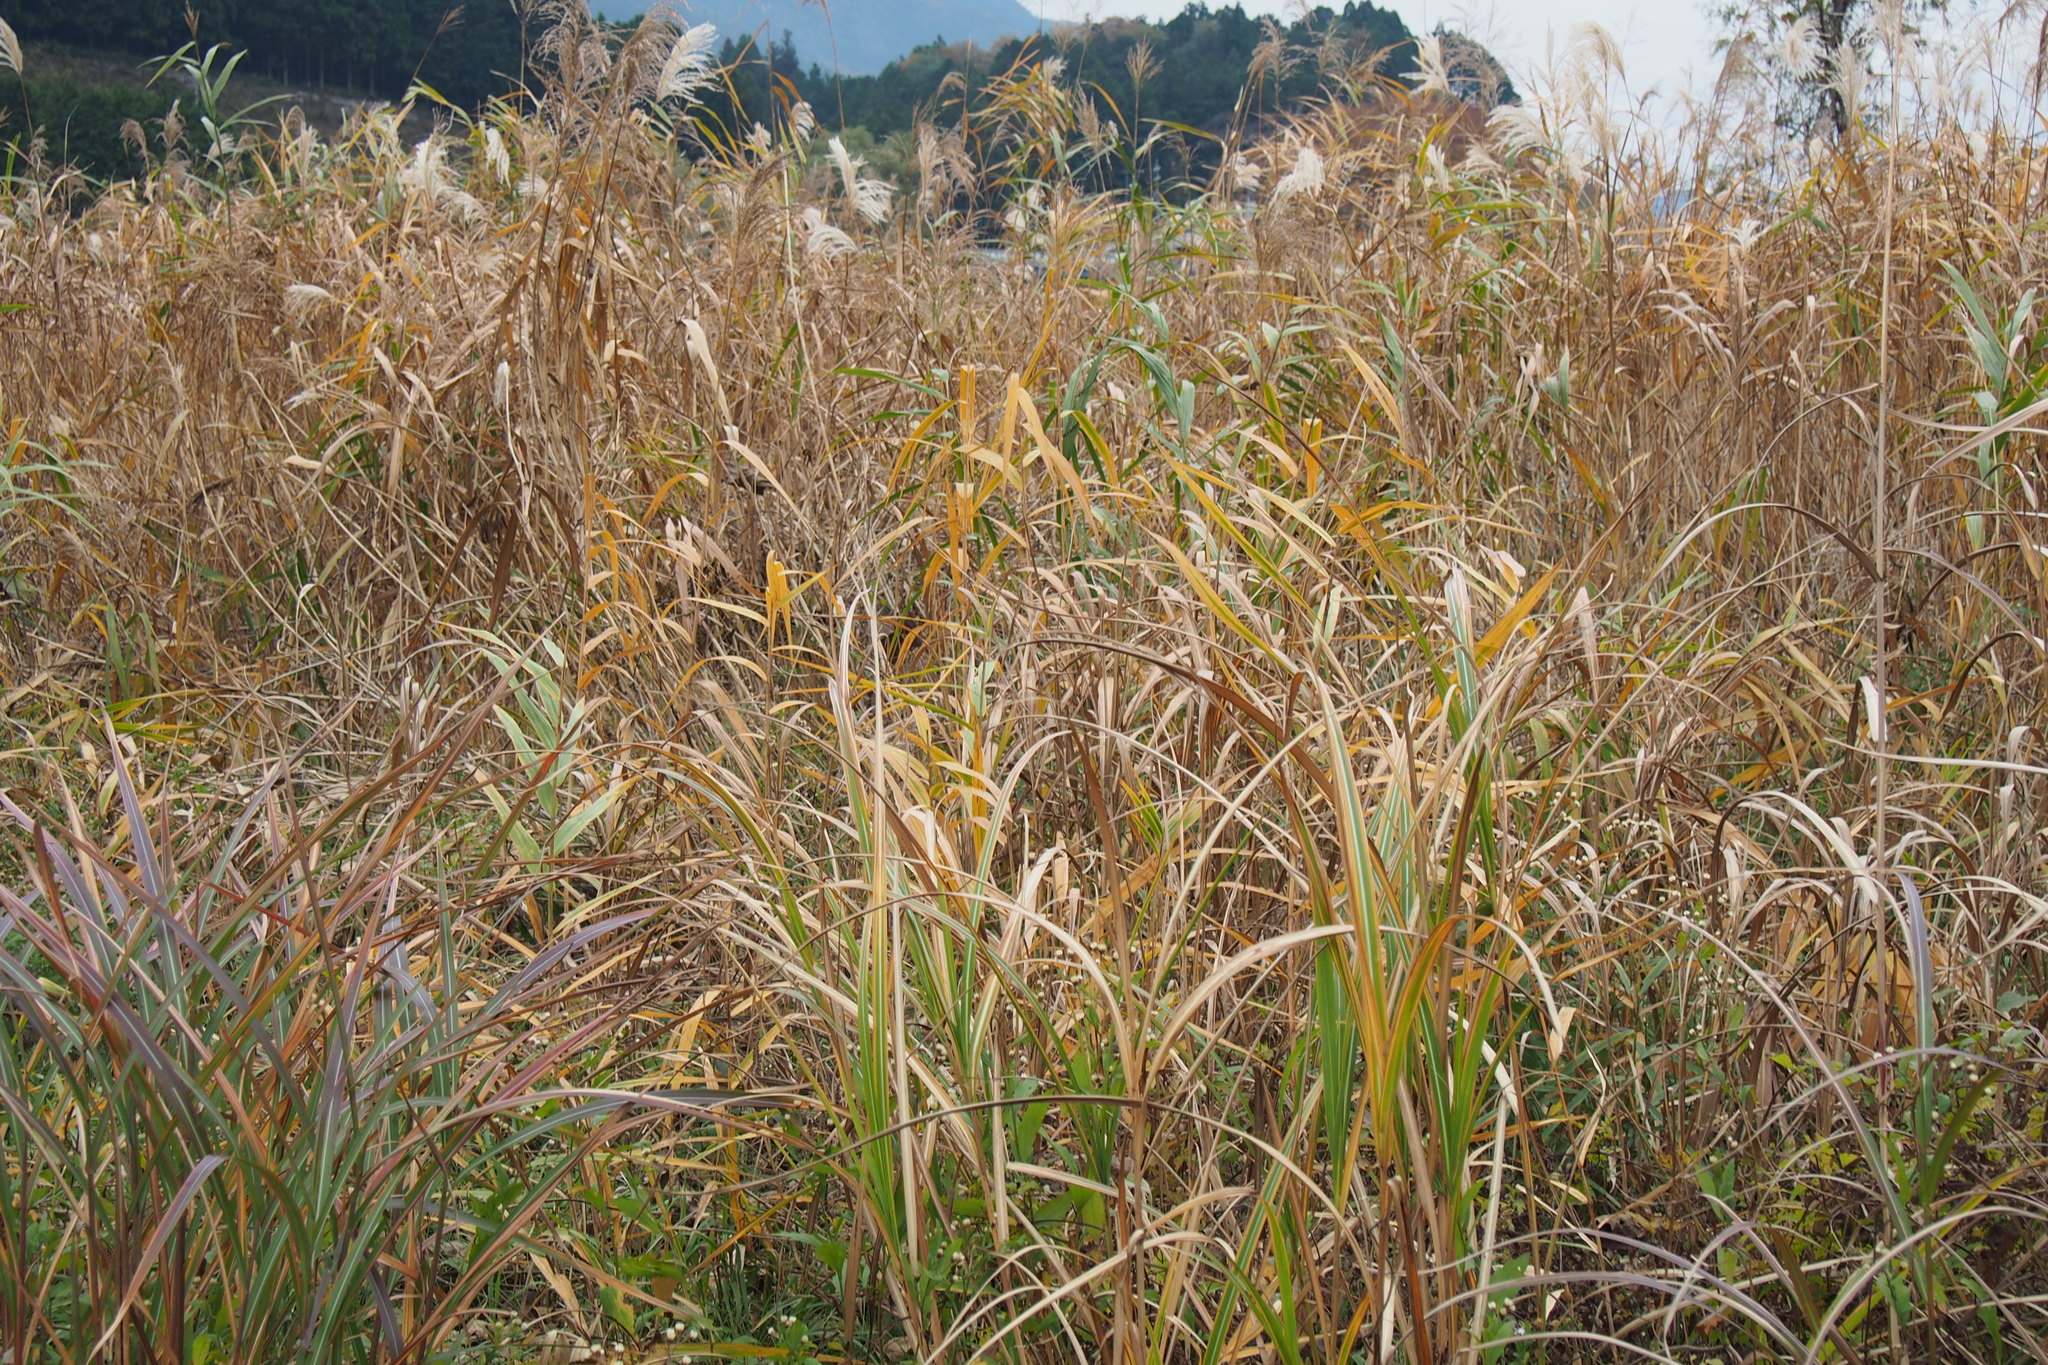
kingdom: Plantae
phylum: Tracheophyta
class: Liliopsida
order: Poales
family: Poaceae
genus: Phragmites
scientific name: Phragmites australis
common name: Common reed
